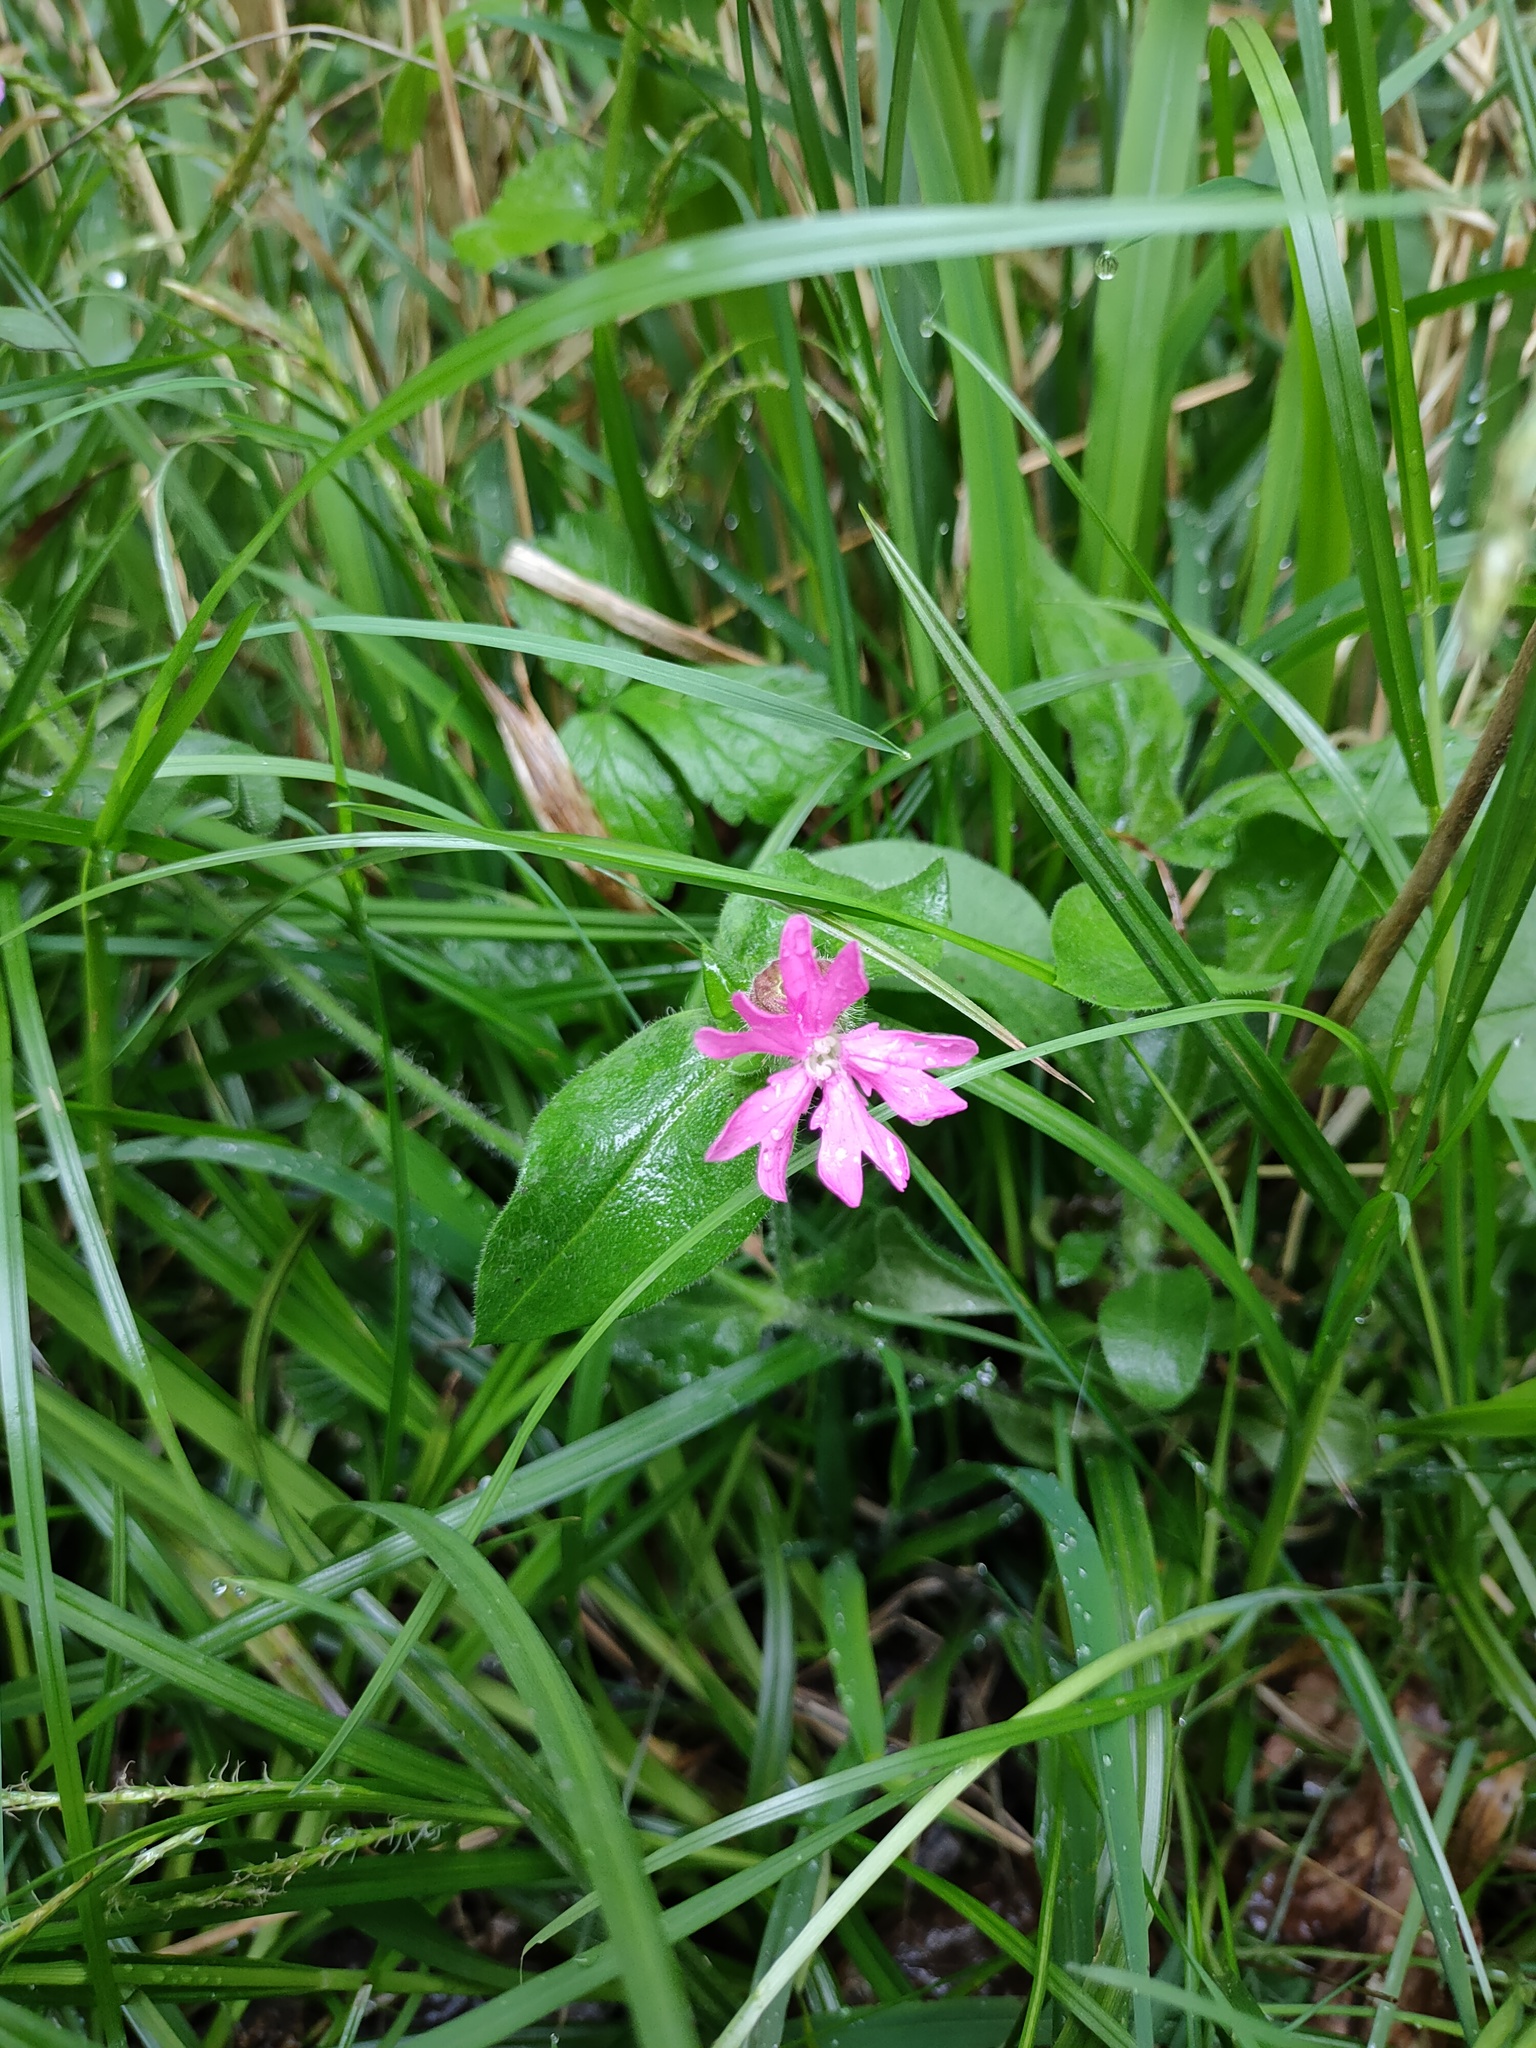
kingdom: Plantae
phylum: Tracheophyta
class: Magnoliopsida
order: Caryophyllales
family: Caryophyllaceae
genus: Silene
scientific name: Silene dioica
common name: Red campion
